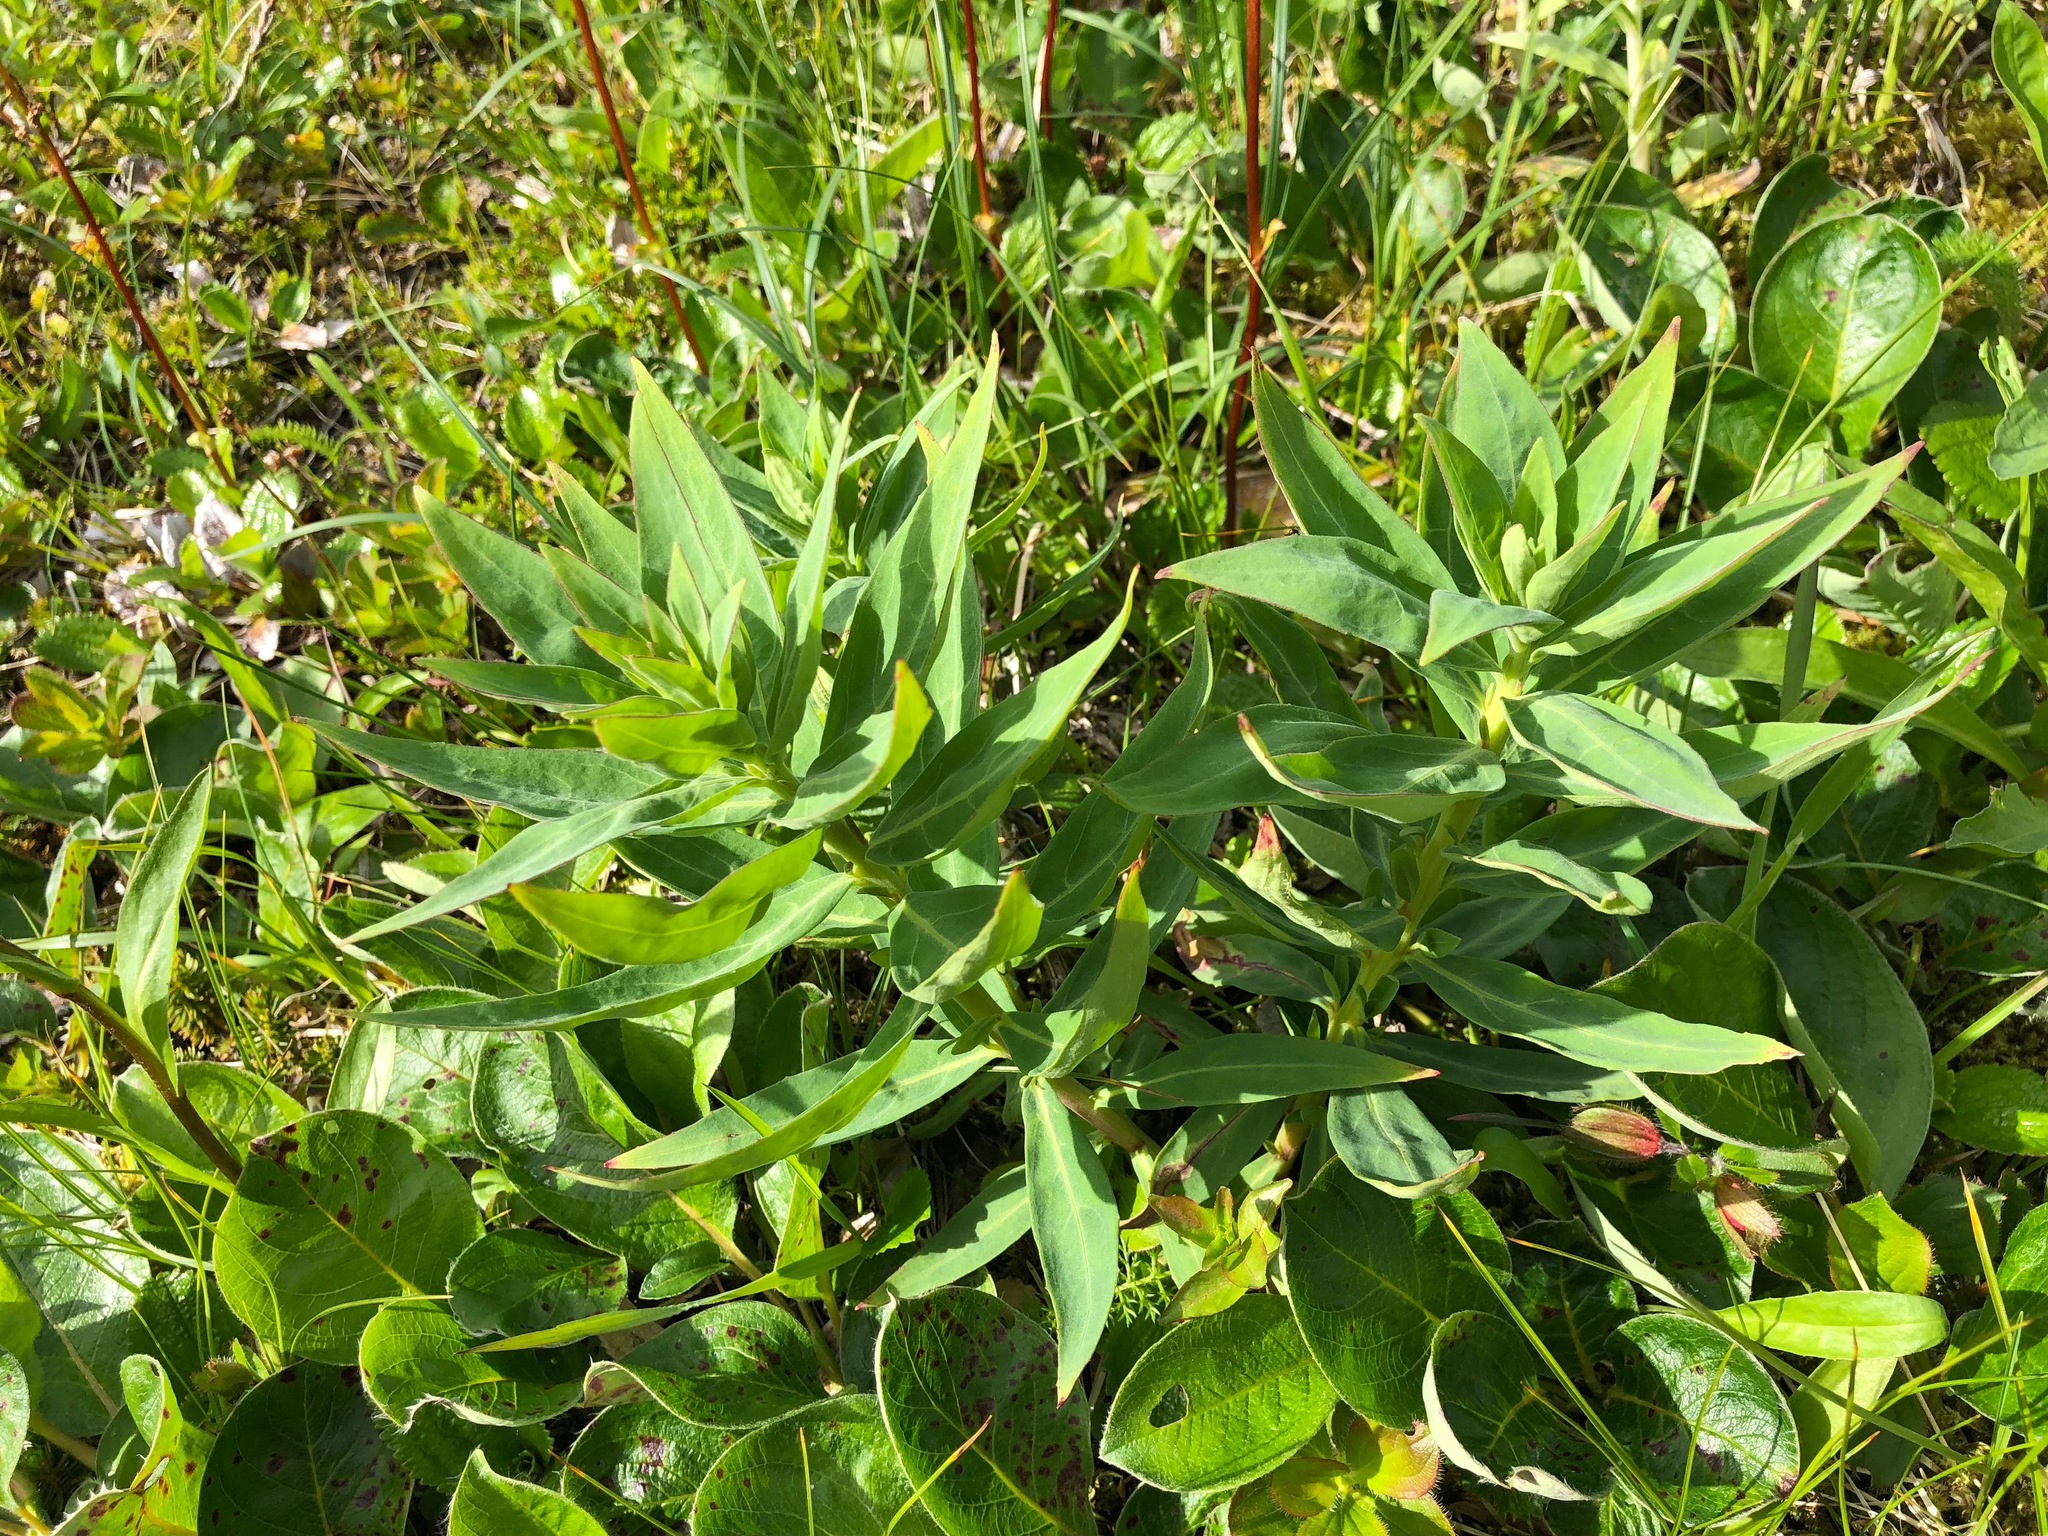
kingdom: Plantae
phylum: Tracheophyta
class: Magnoliopsida
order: Myrtales
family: Onagraceae
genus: Chamaenerion
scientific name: Chamaenerion latifolium
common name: Dwarf fireweed
